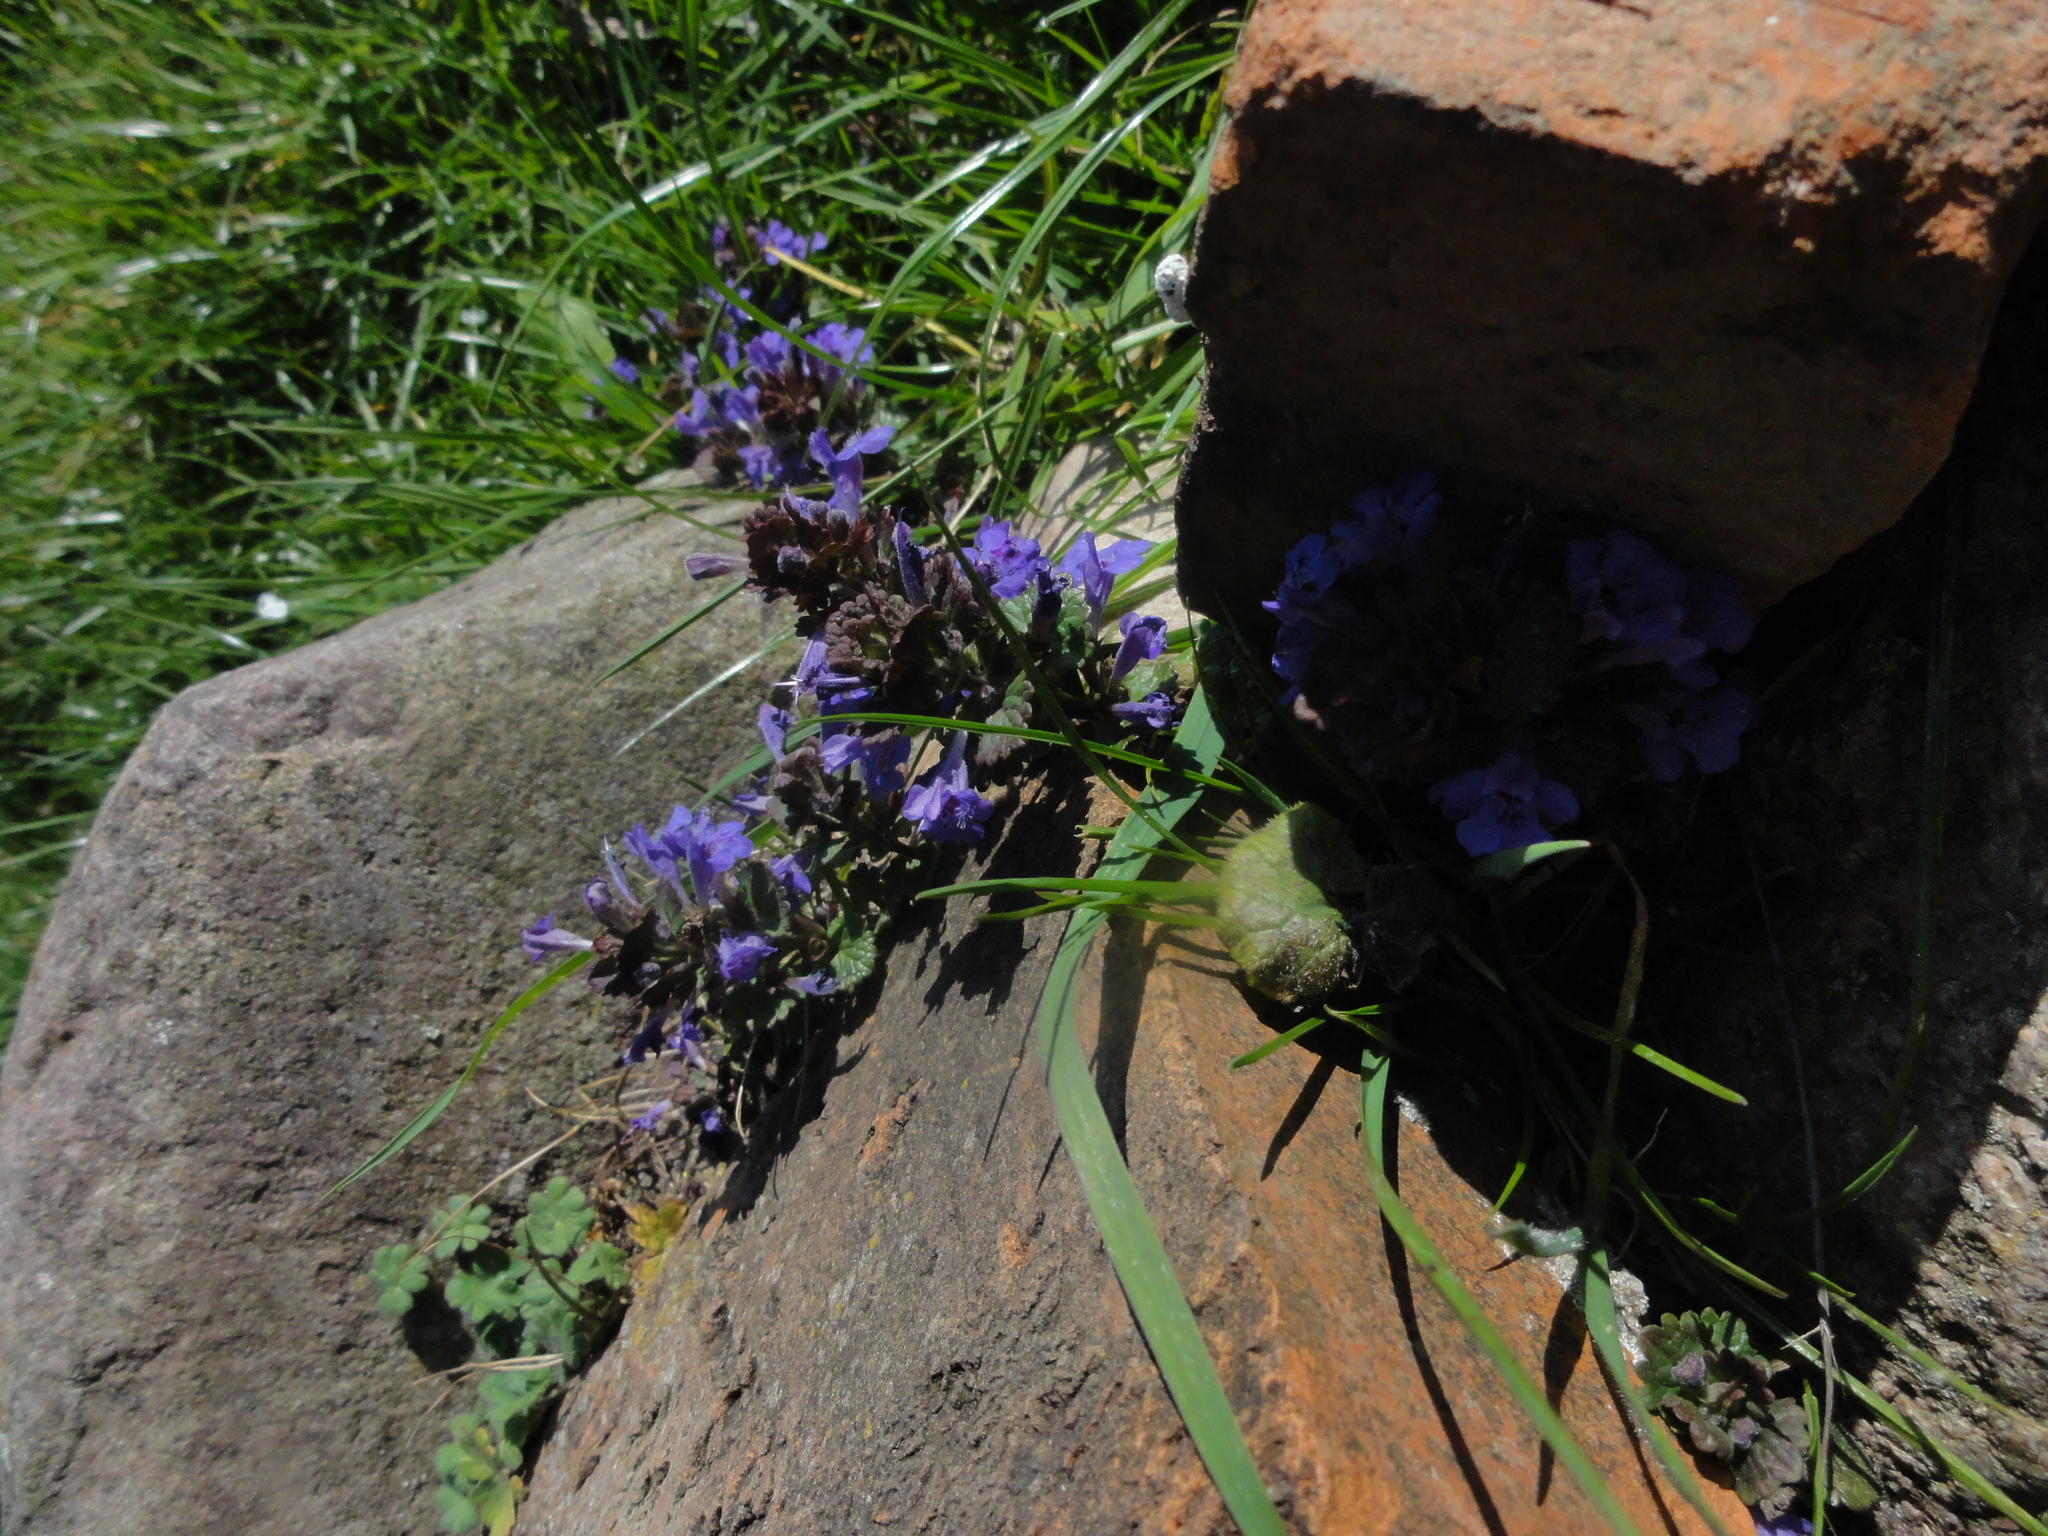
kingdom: Plantae
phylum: Tracheophyta
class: Magnoliopsida
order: Lamiales
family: Lamiaceae
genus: Glechoma
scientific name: Glechoma hederacea
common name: Ground ivy
